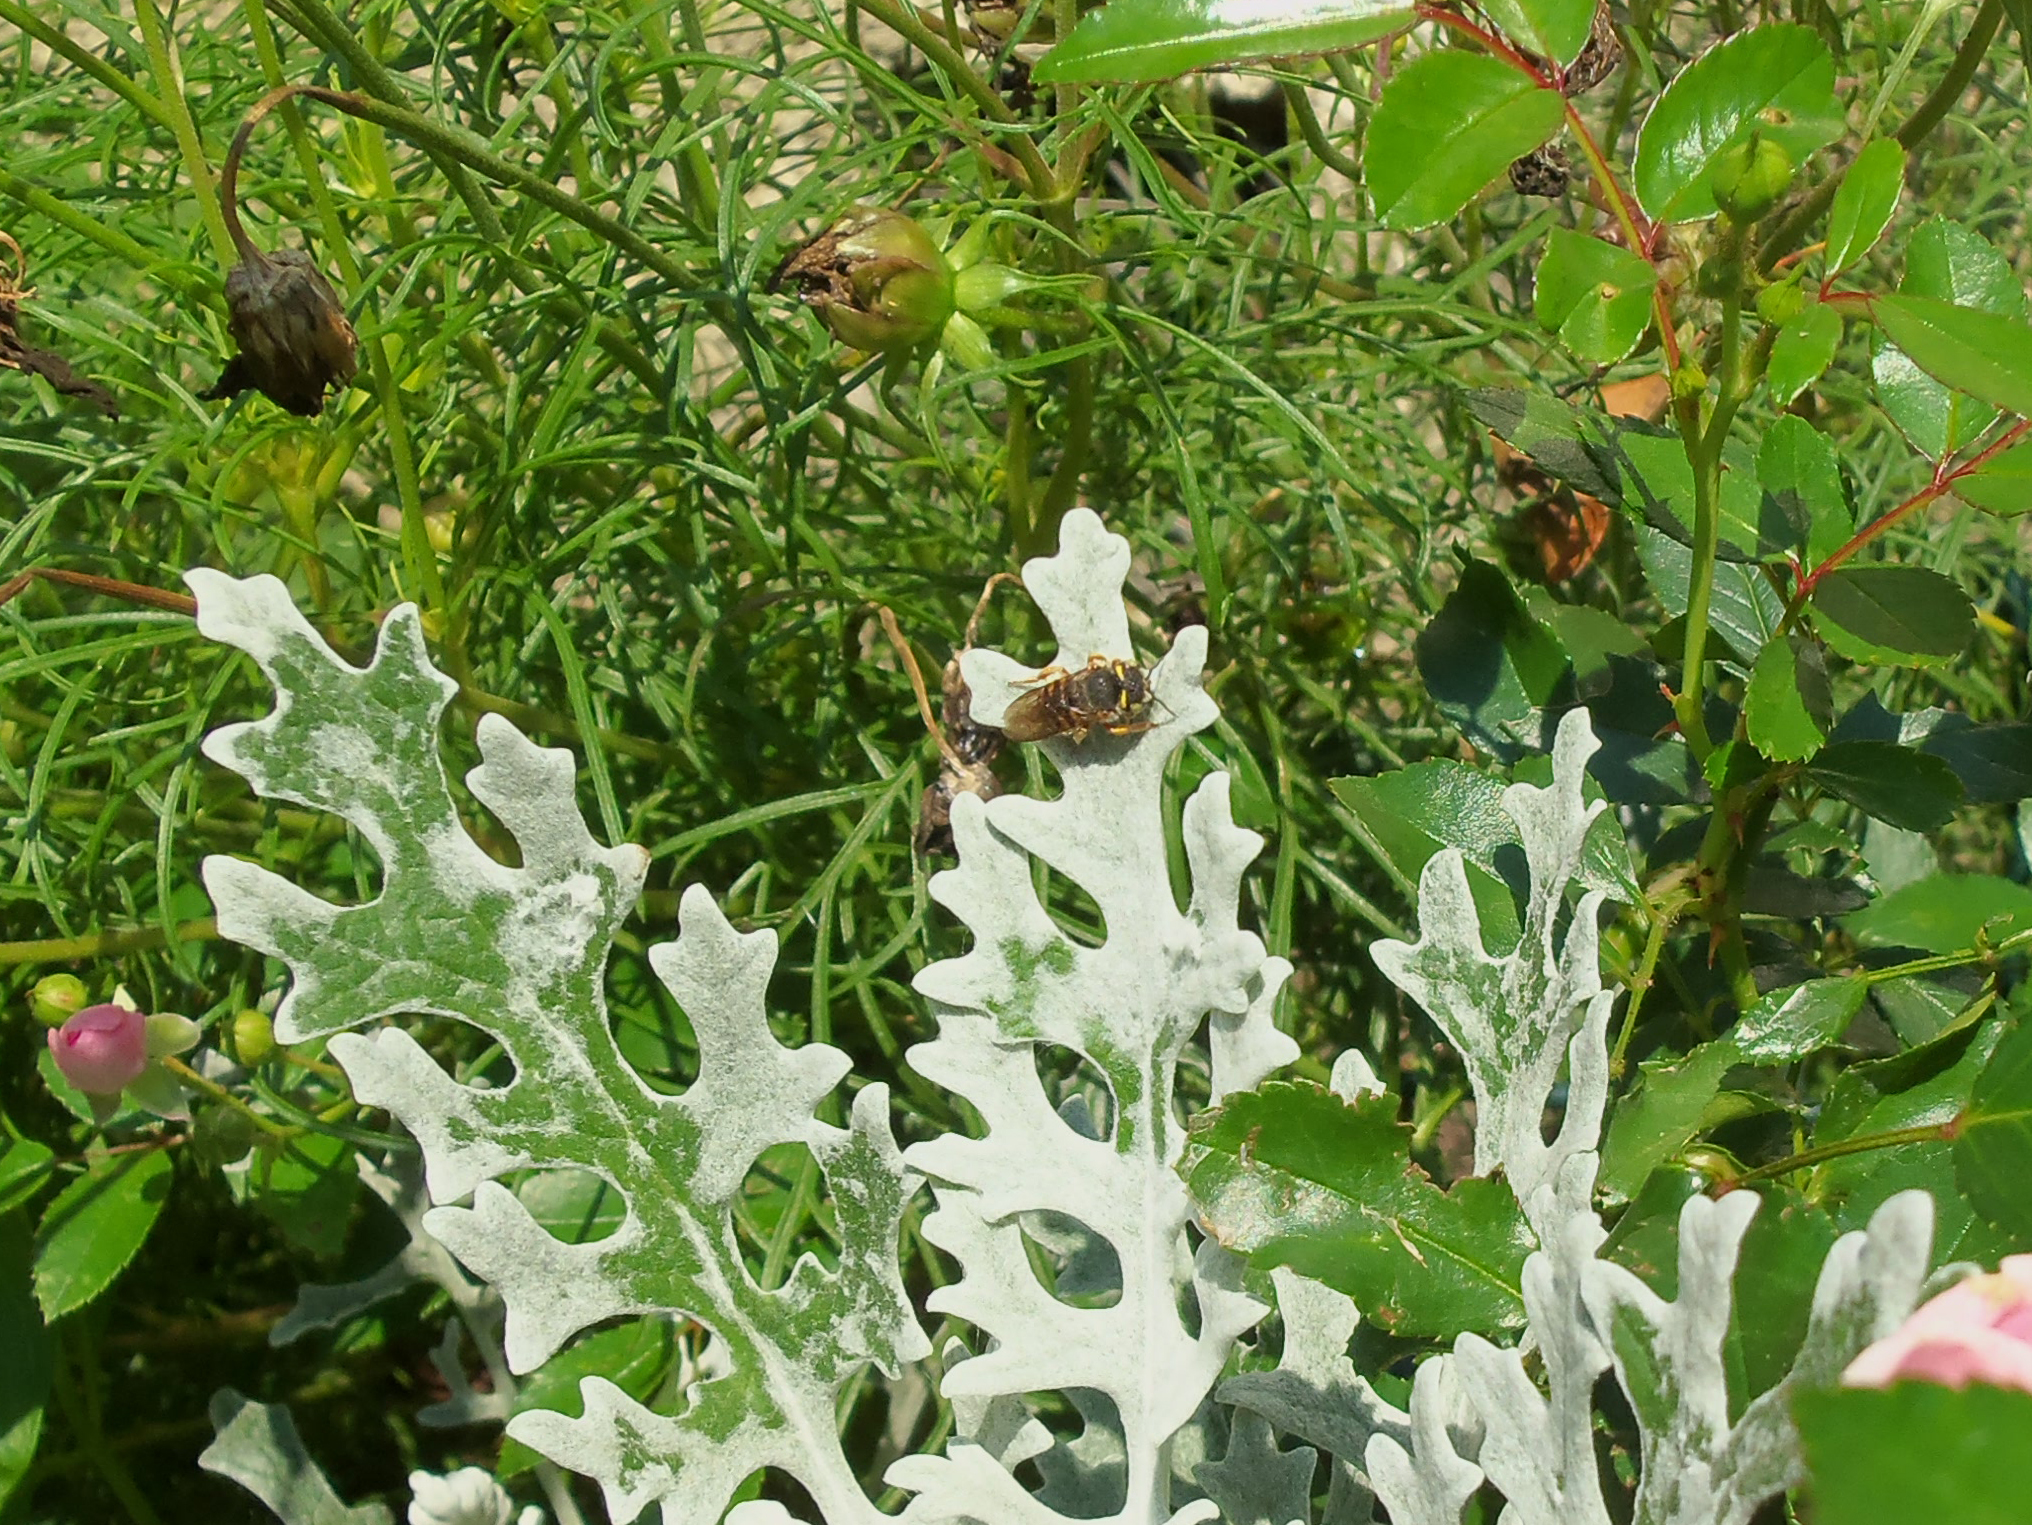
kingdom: Animalia
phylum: Arthropoda
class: Insecta
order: Hymenoptera
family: Megachilidae
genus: Anthidium
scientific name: Anthidium oblongatum
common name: Oblong wool carder bee
